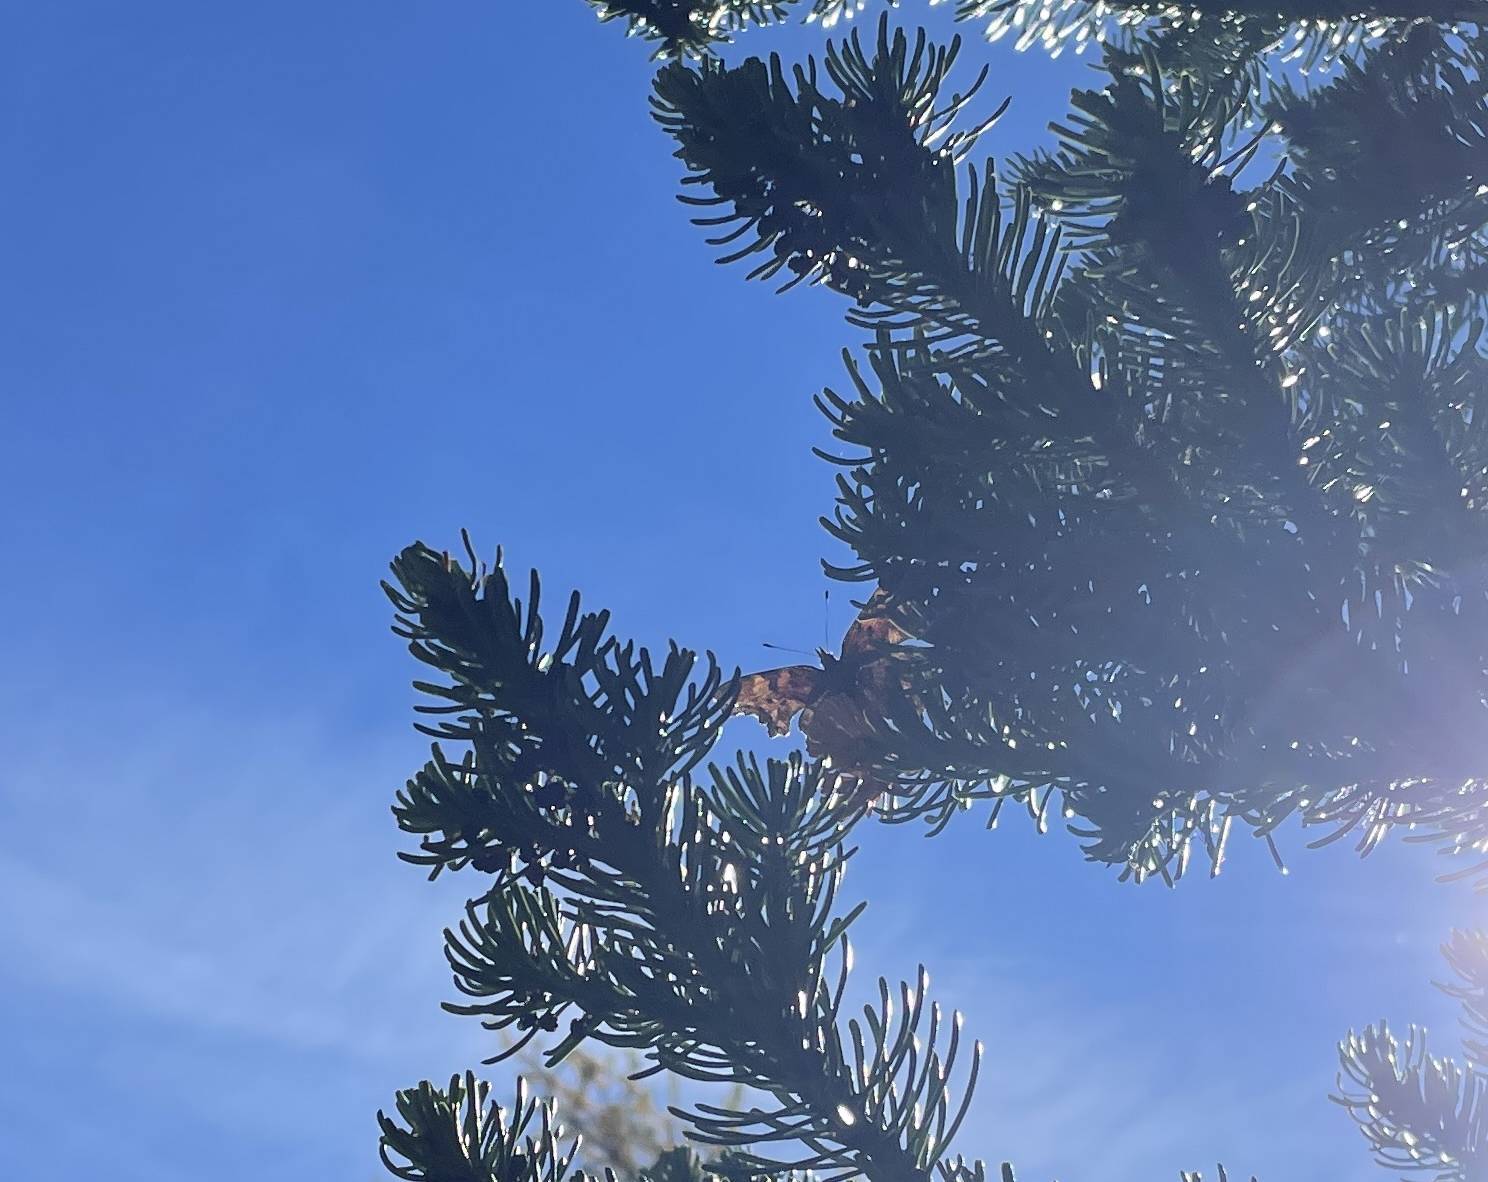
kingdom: Animalia
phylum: Arthropoda
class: Insecta
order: Lepidoptera
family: Nymphalidae
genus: Polygonia
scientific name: Polygonia gracilis
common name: Hoary comma
